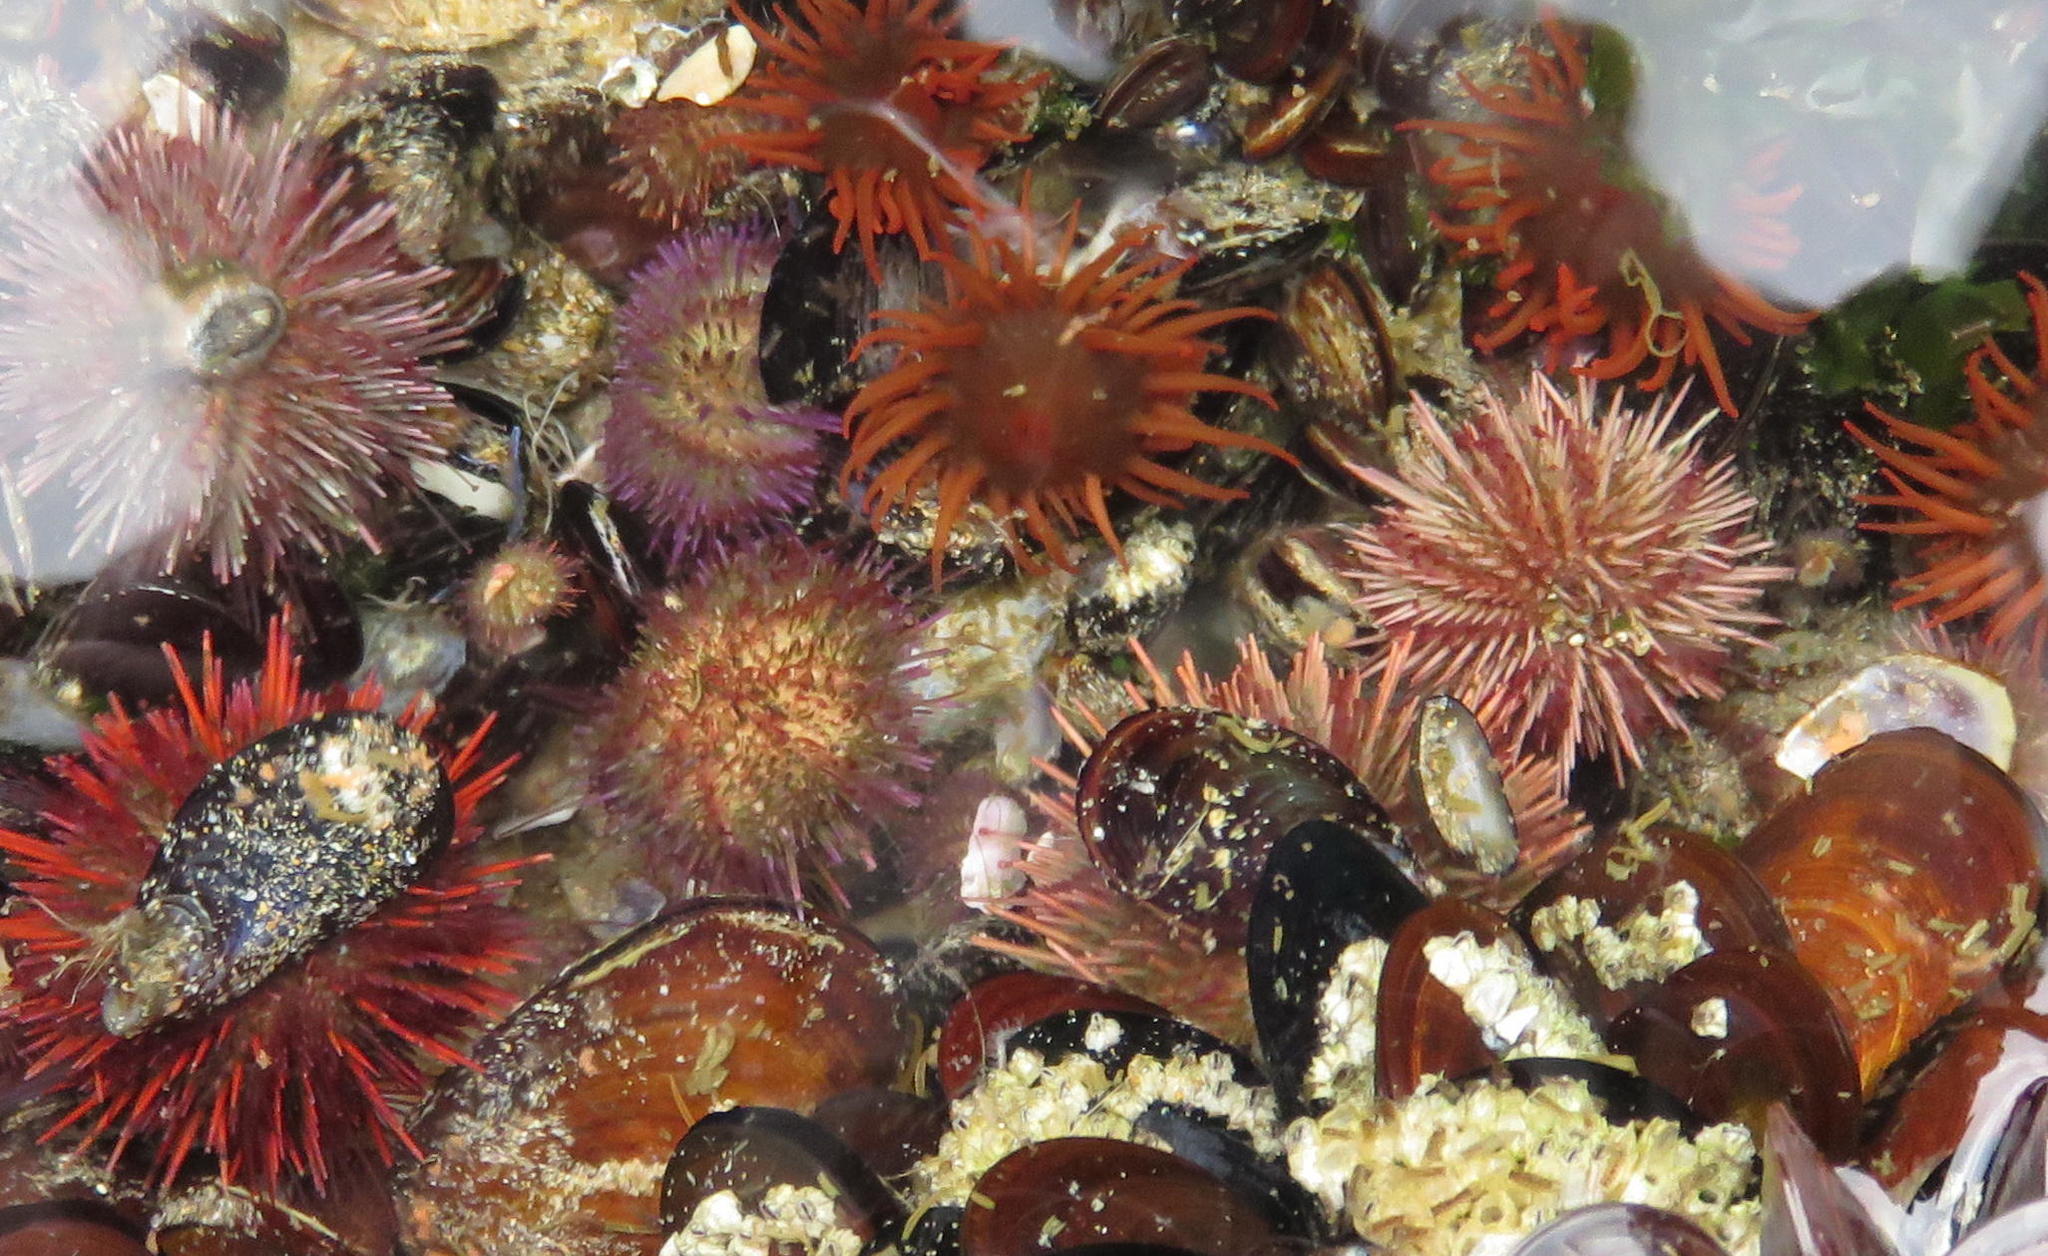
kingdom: Animalia
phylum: Echinodermata
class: Echinoidea
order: Camarodonta
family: Parechinidae
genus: Parechinus
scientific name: Parechinus angulosus
